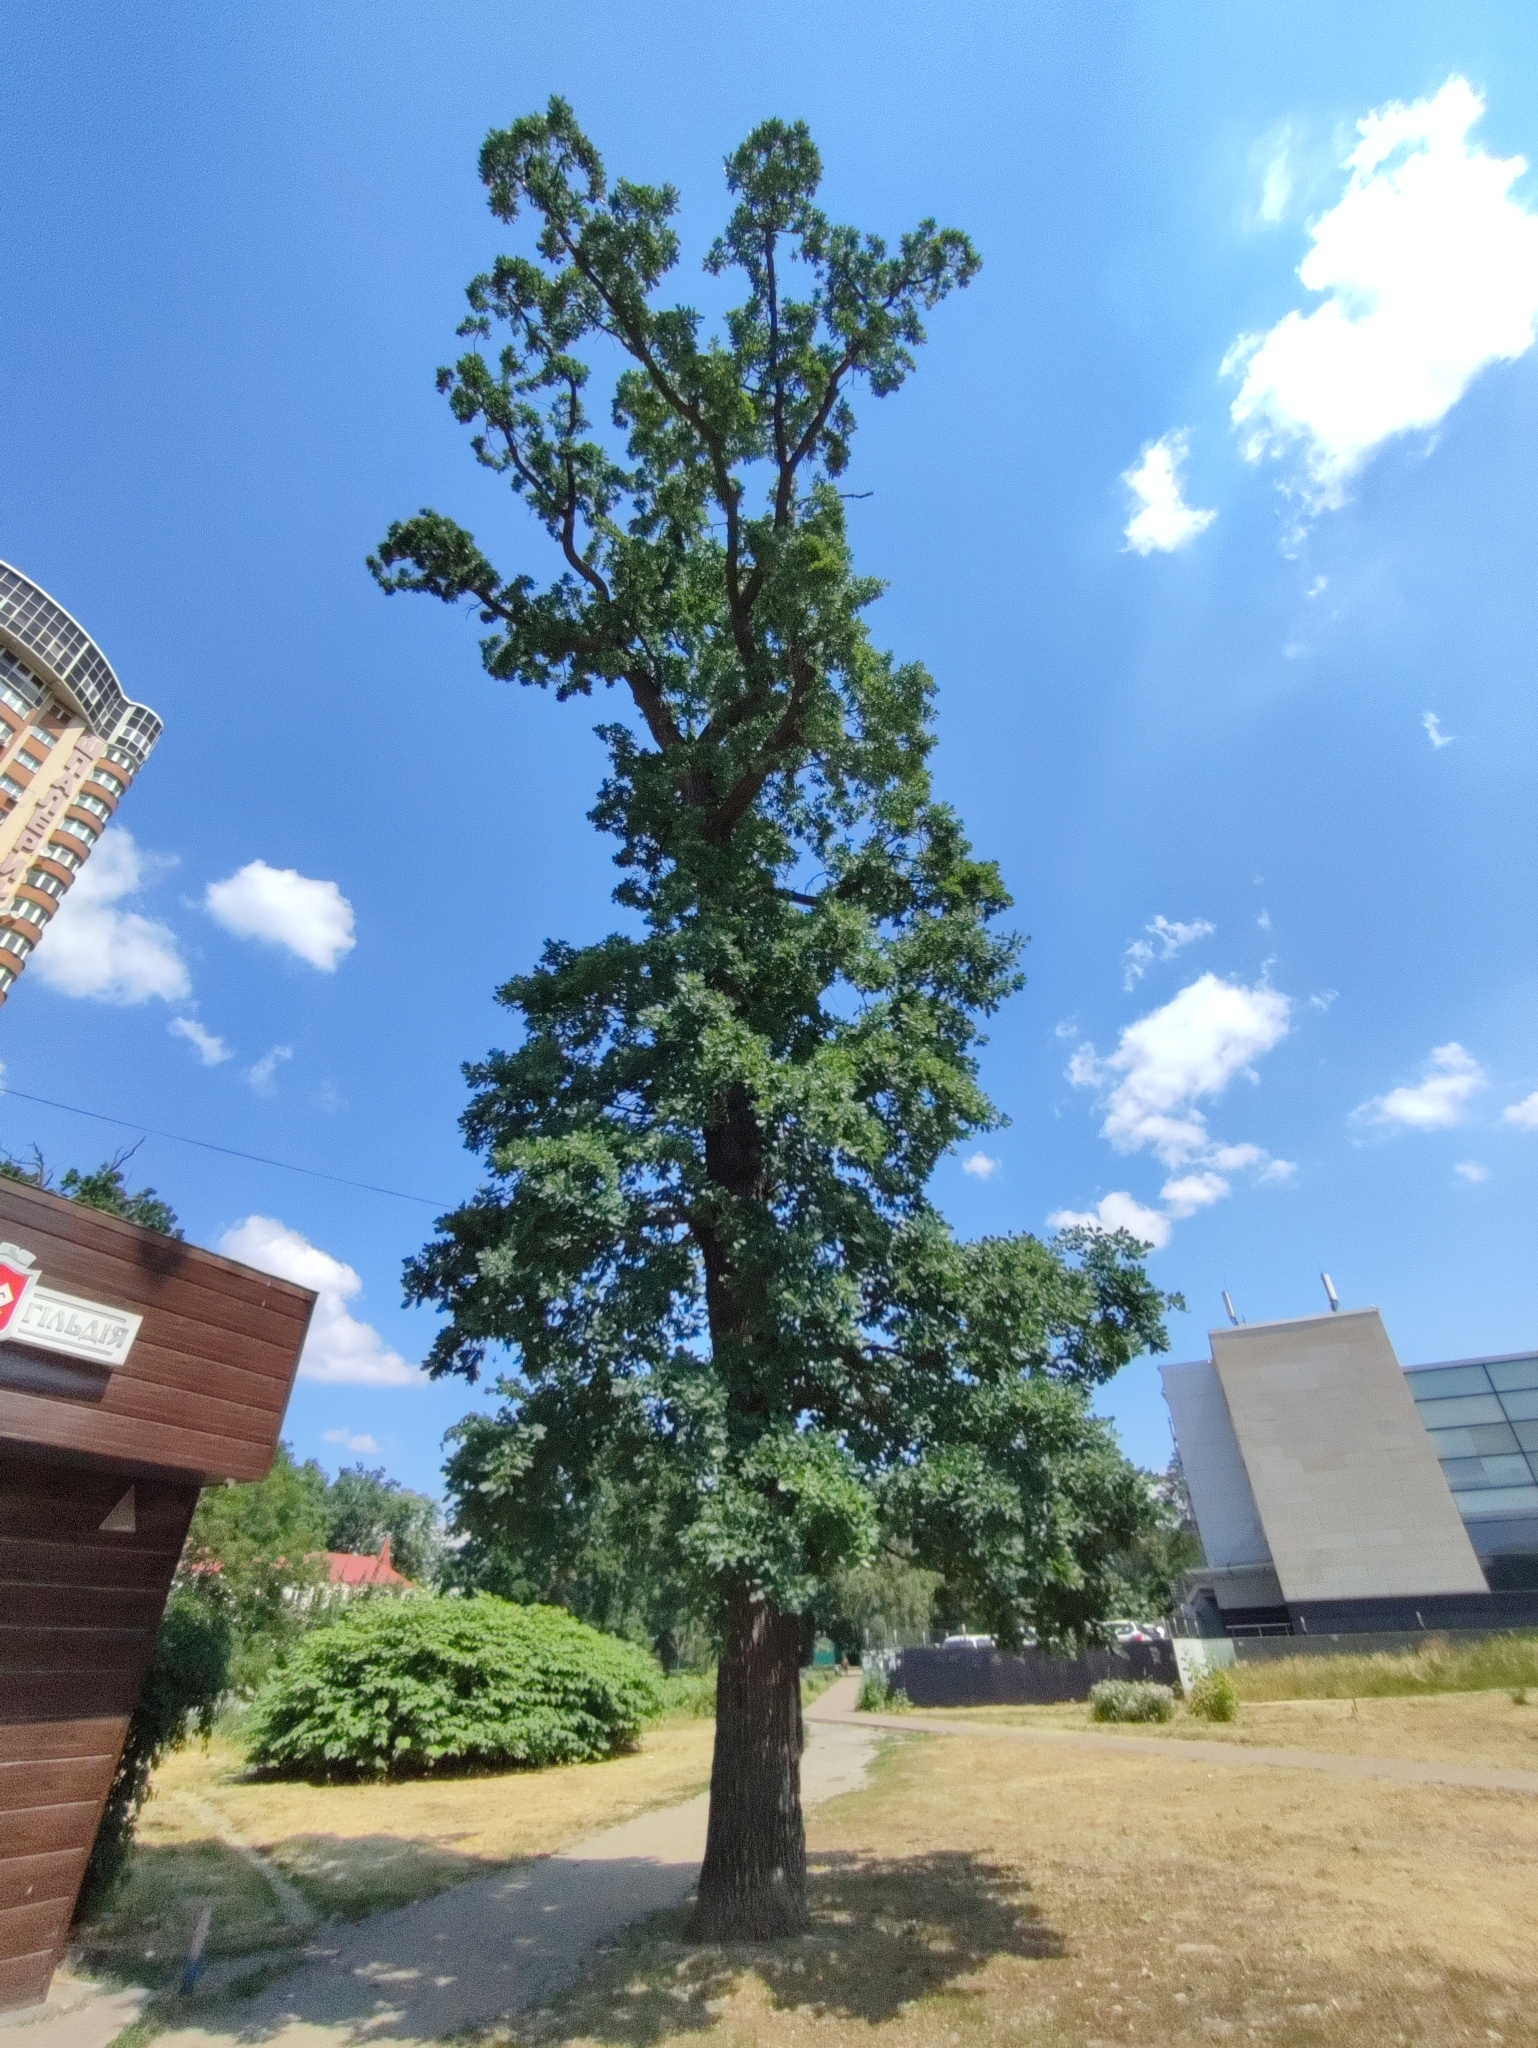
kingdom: Plantae
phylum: Tracheophyta
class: Magnoliopsida
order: Fagales
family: Fagaceae
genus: Quercus
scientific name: Quercus robur
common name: Pedunculate oak
